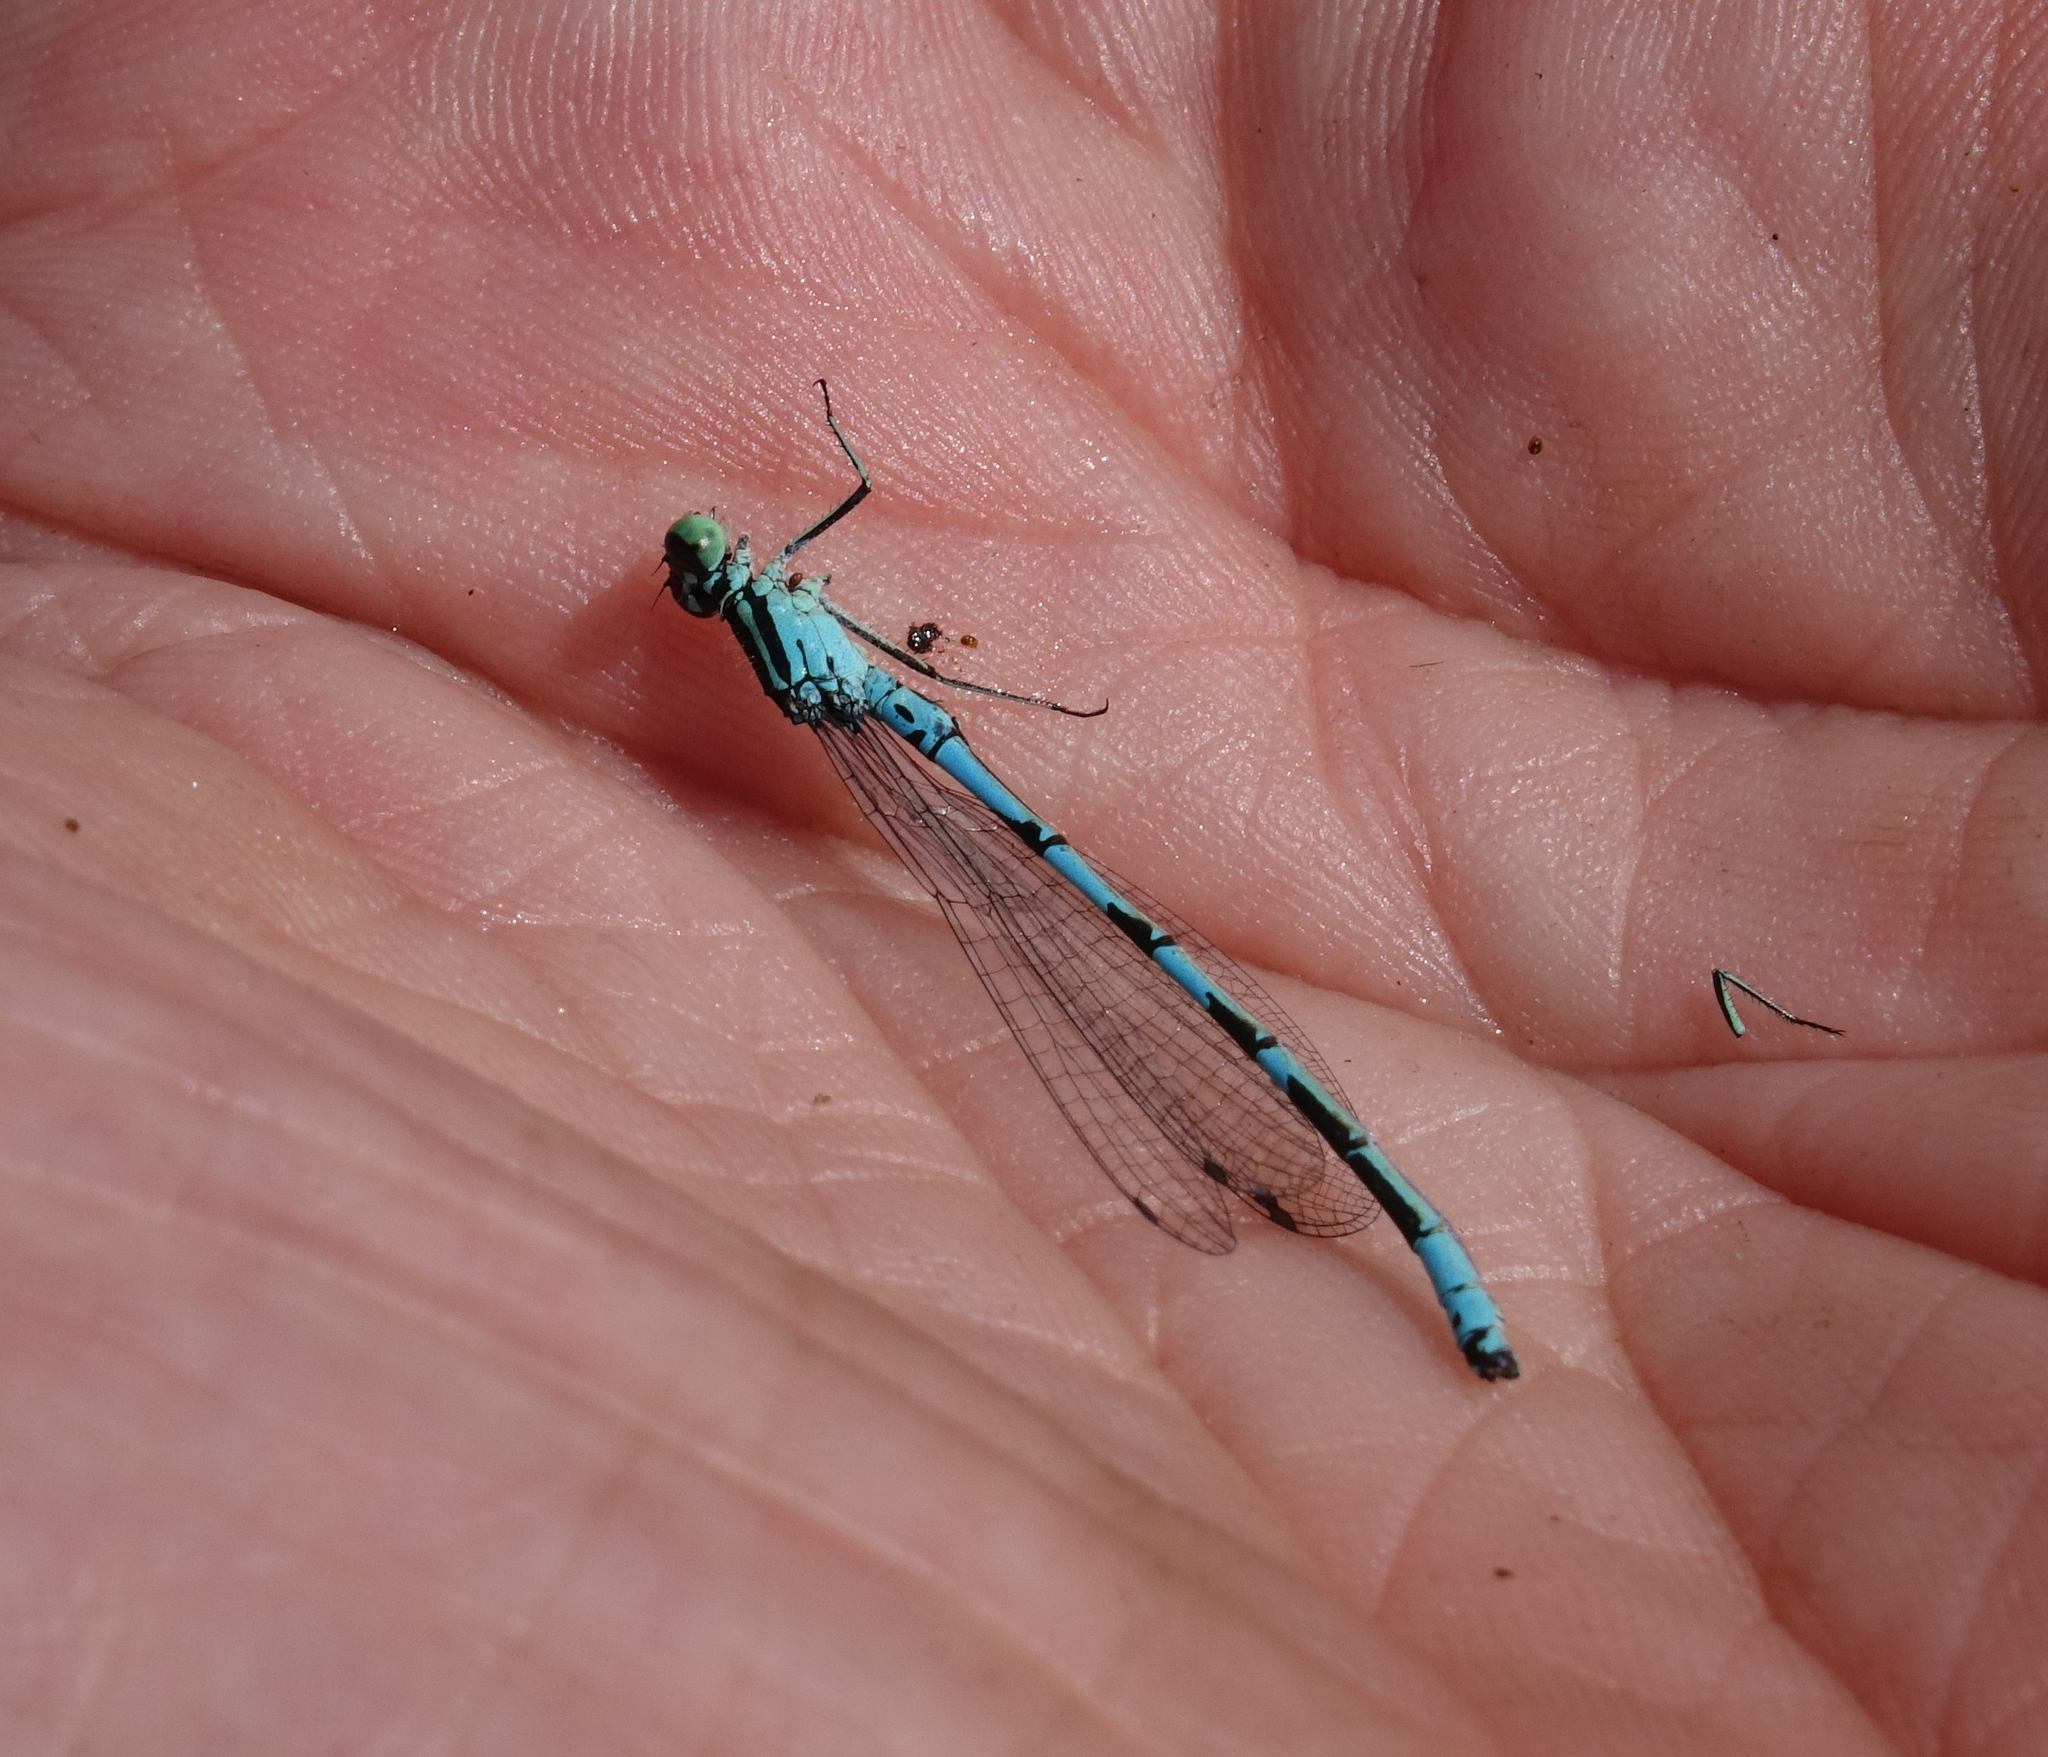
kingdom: Animalia
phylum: Arthropoda
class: Insecta
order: Odonata
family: Coenagrionidae
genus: Coenagrion
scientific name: Coenagrion hastulatum
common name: Spearhead bluet
